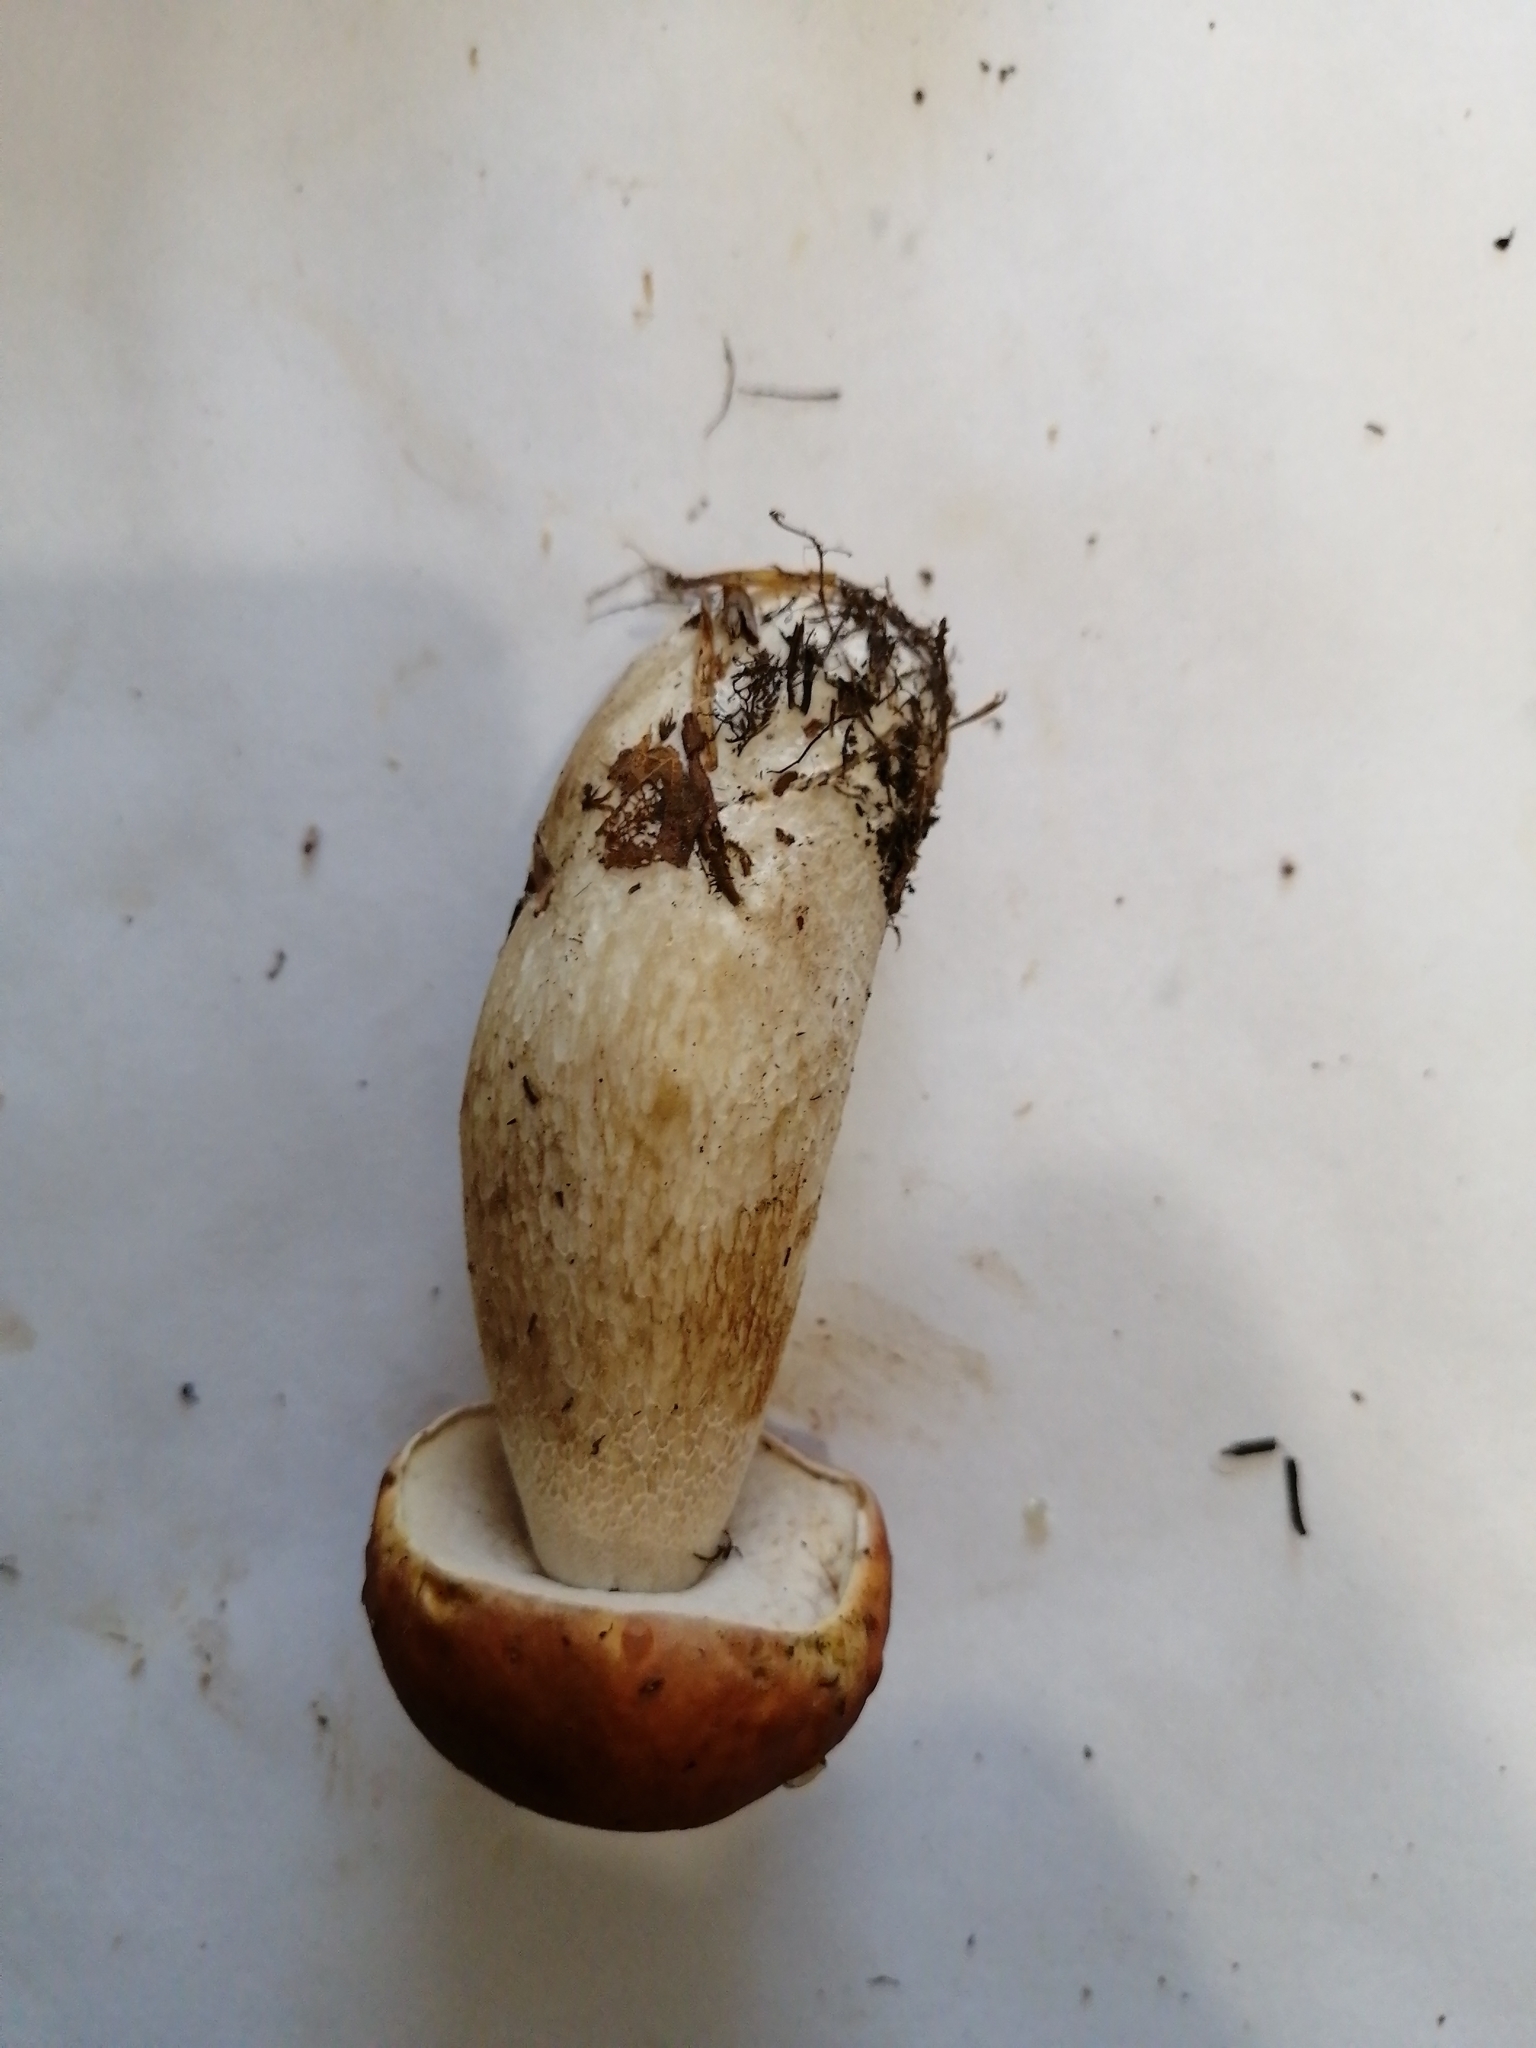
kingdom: Fungi
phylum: Basidiomycota
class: Agaricomycetes
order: Boletales
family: Boletaceae
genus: Boletus
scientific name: Boletus edulis
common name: Cep
